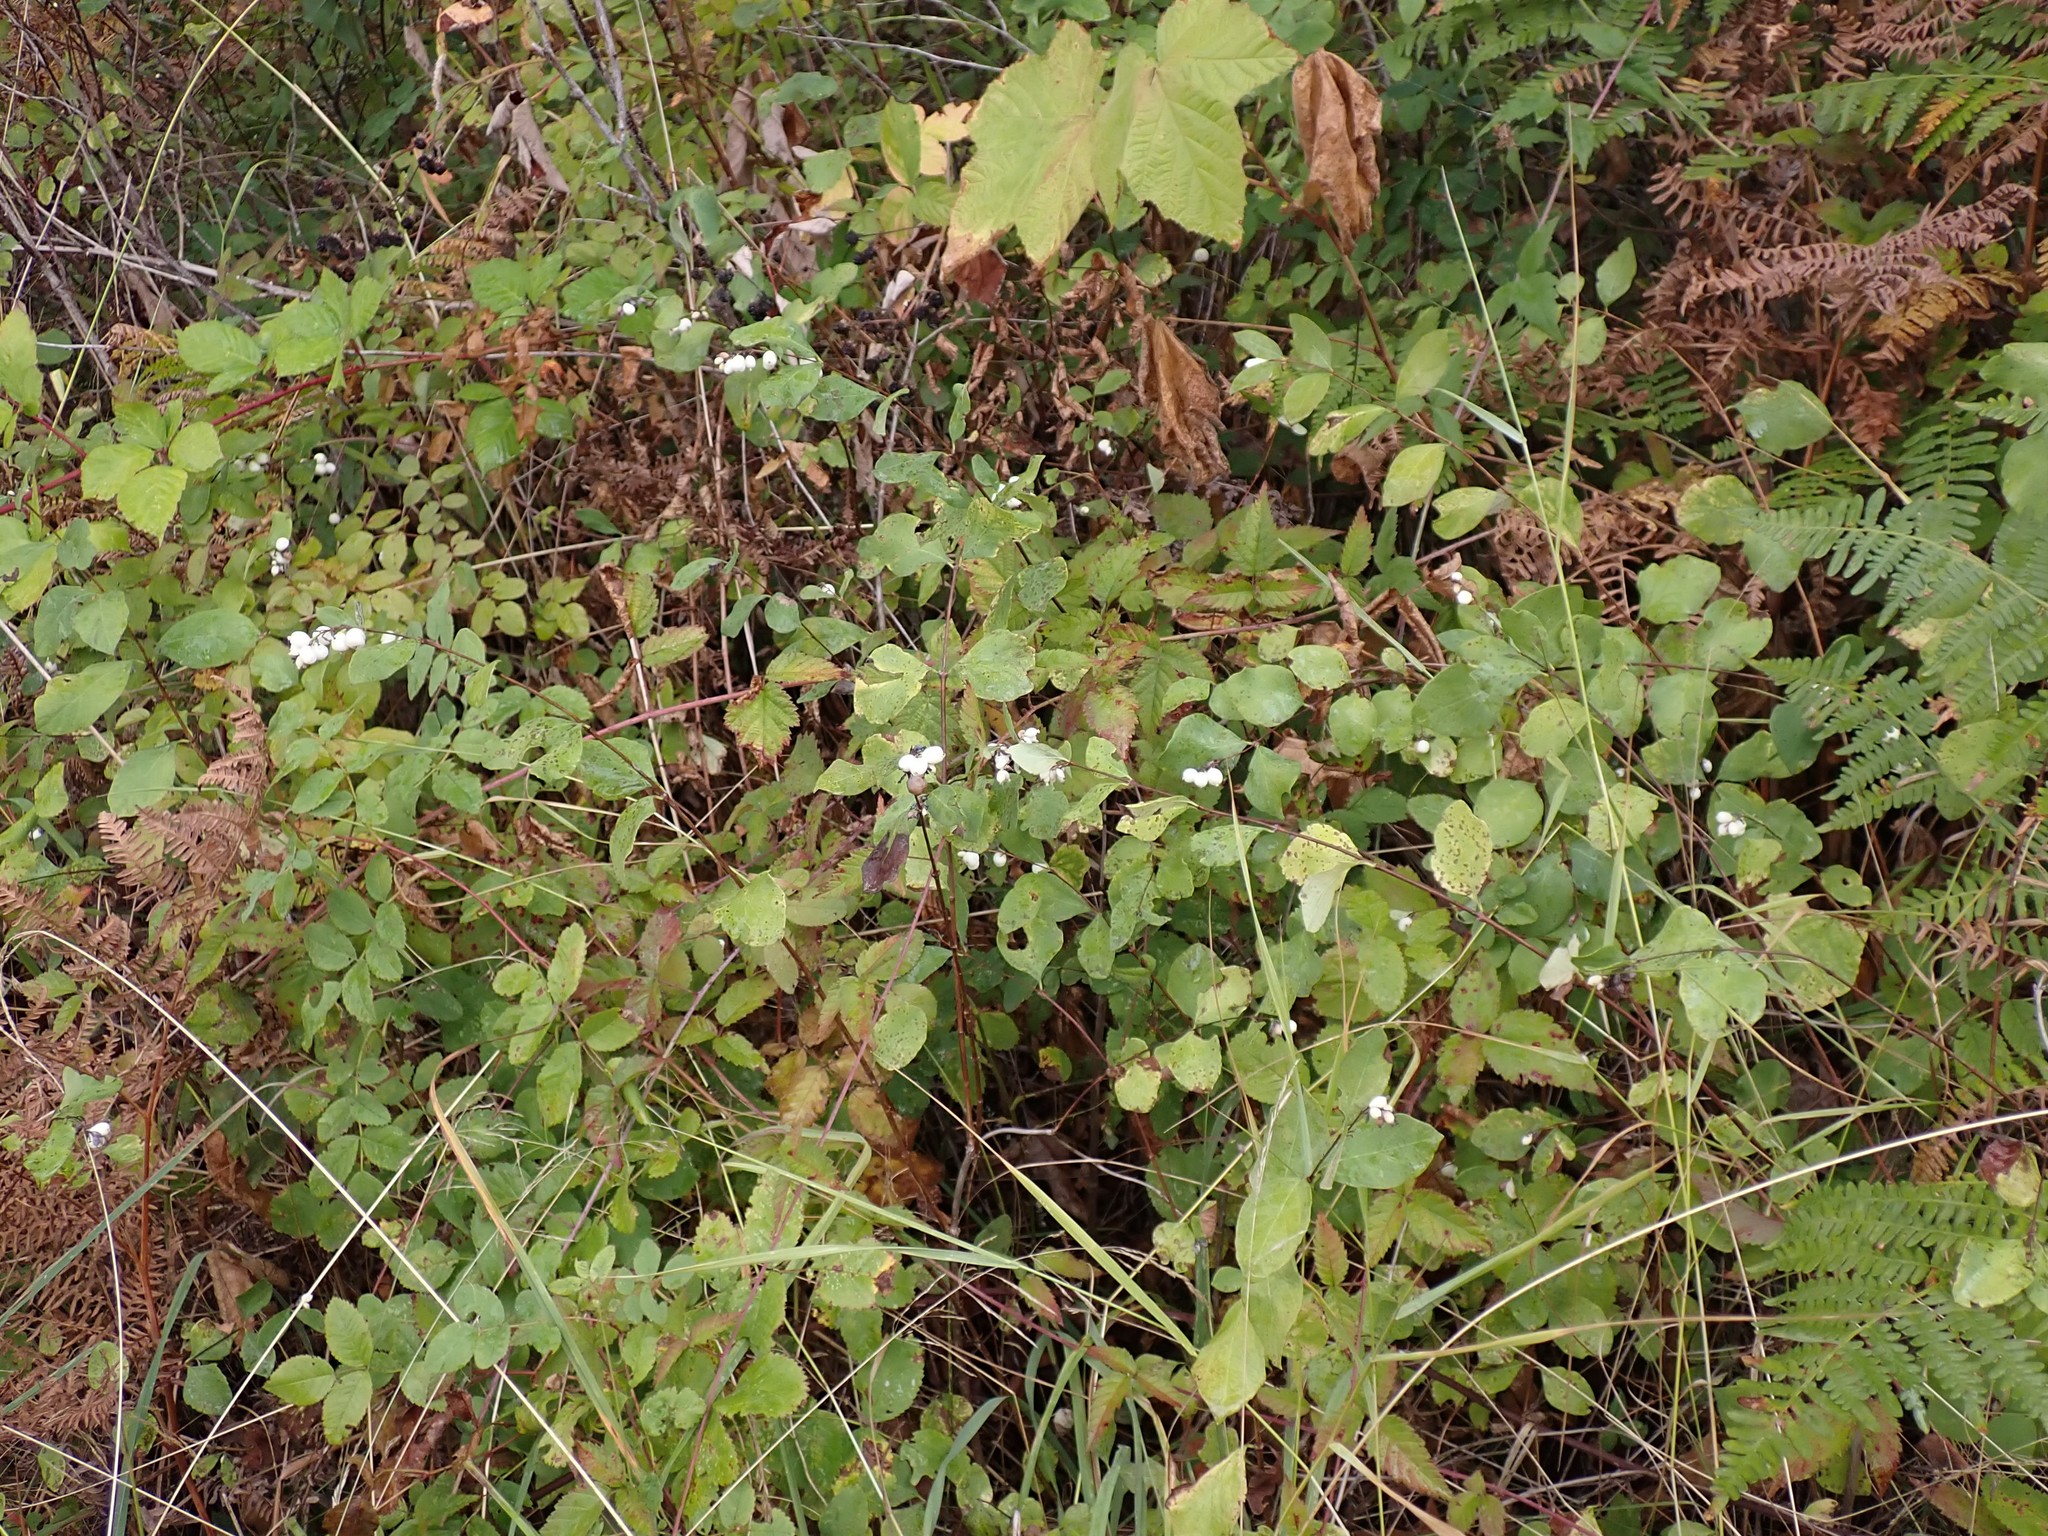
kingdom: Plantae
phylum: Tracheophyta
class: Magnoliopsida
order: Dipsacales
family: Caprifoliaceae
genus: Symphoricarpos
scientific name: Symphoricarpos albus
